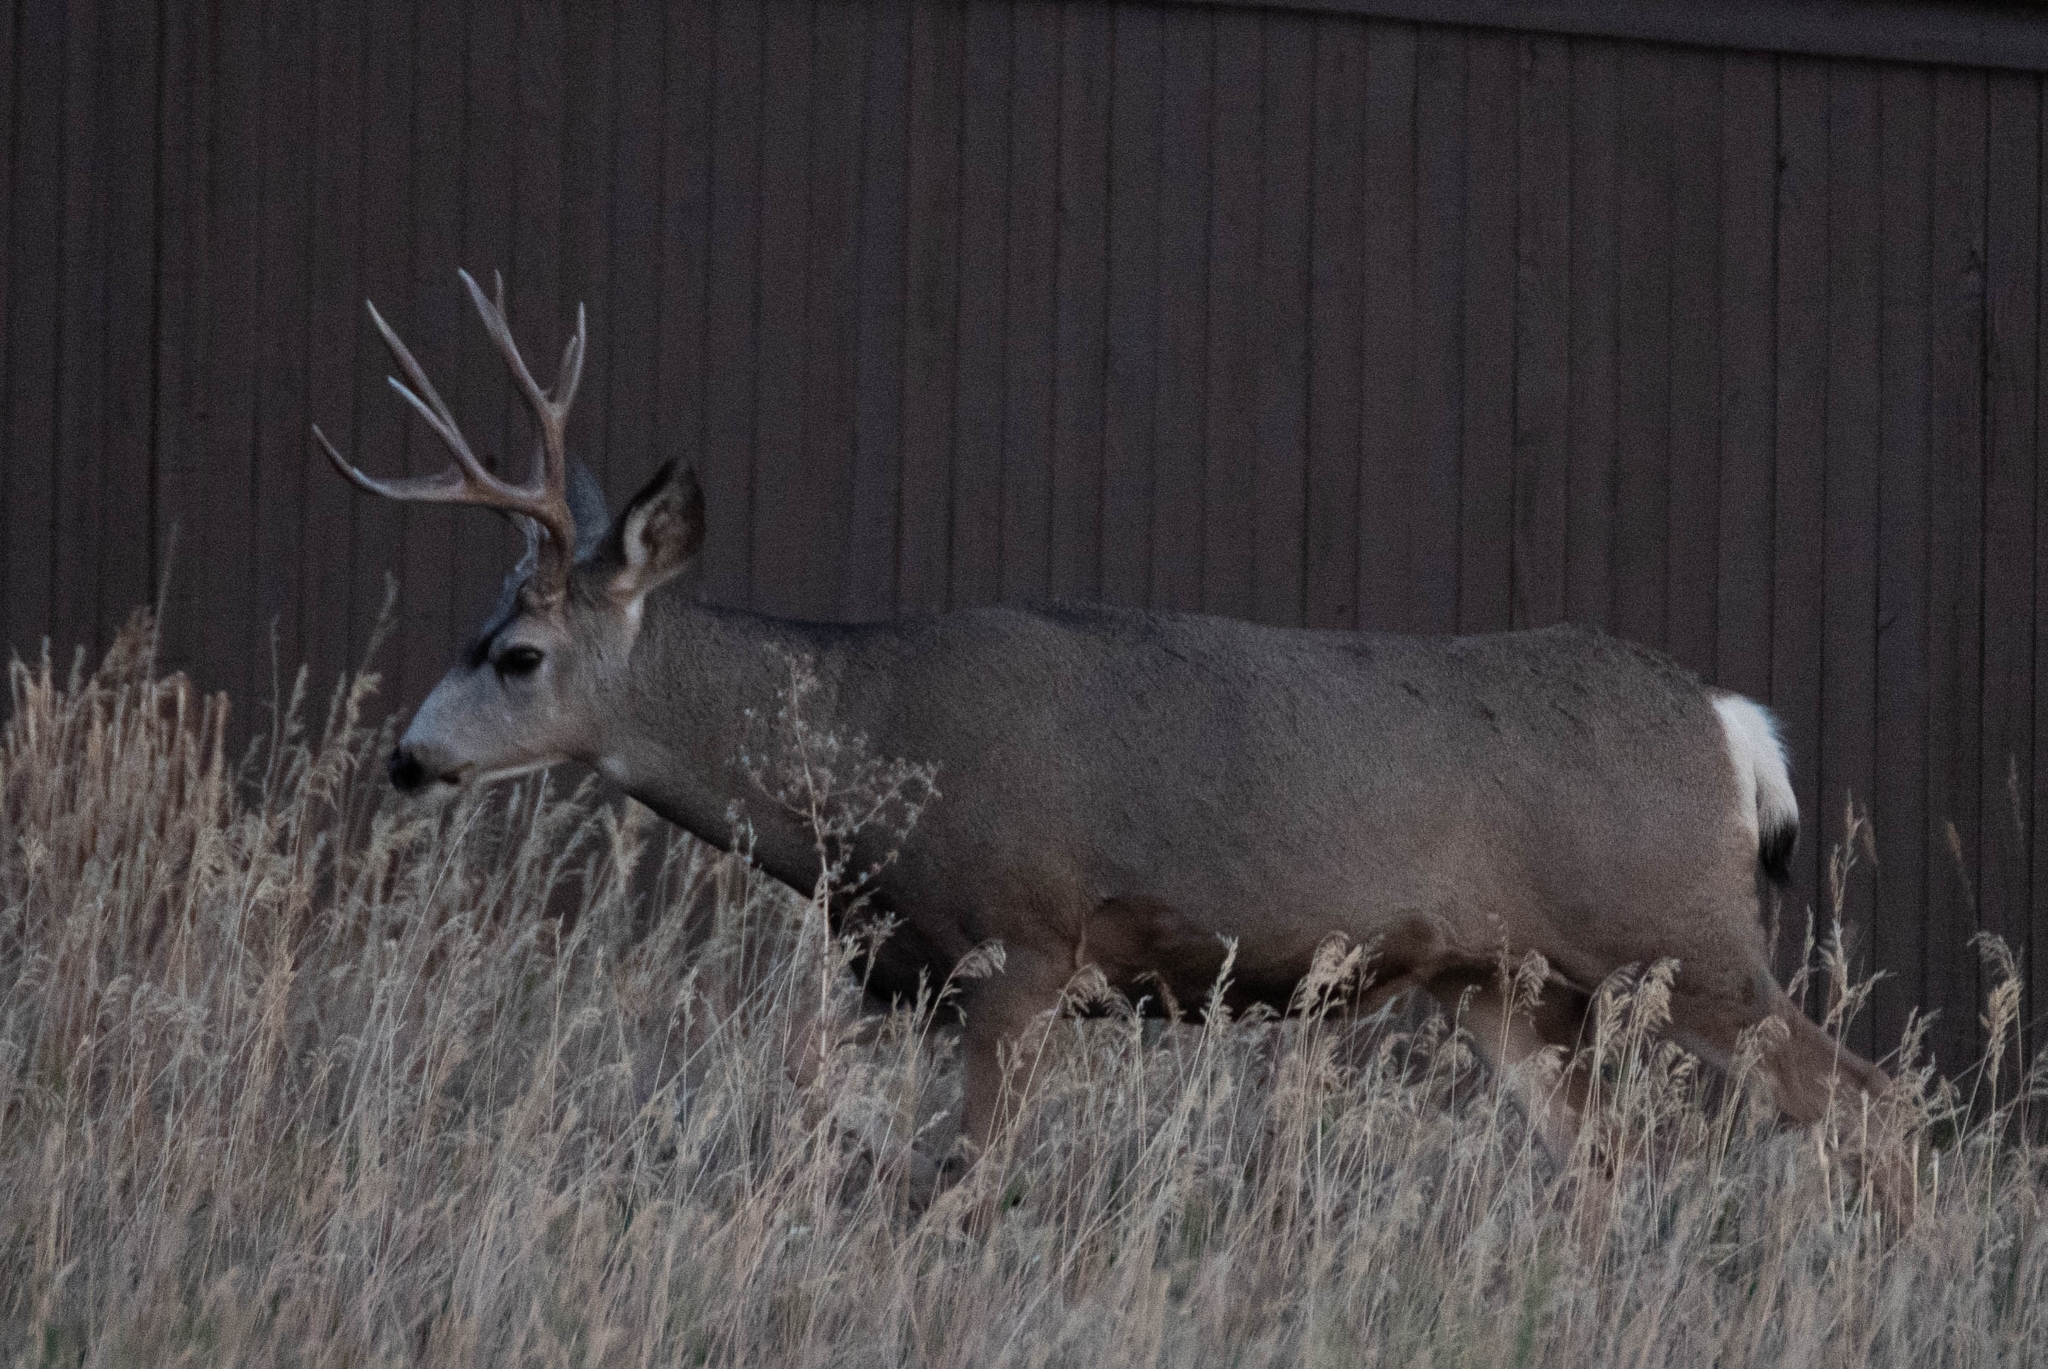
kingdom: Animalia
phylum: Chordata
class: Mammalia
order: Artiodactyla
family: Cervidae
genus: Odocoileus
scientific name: Odocoileus hemionus
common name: Mule deer
